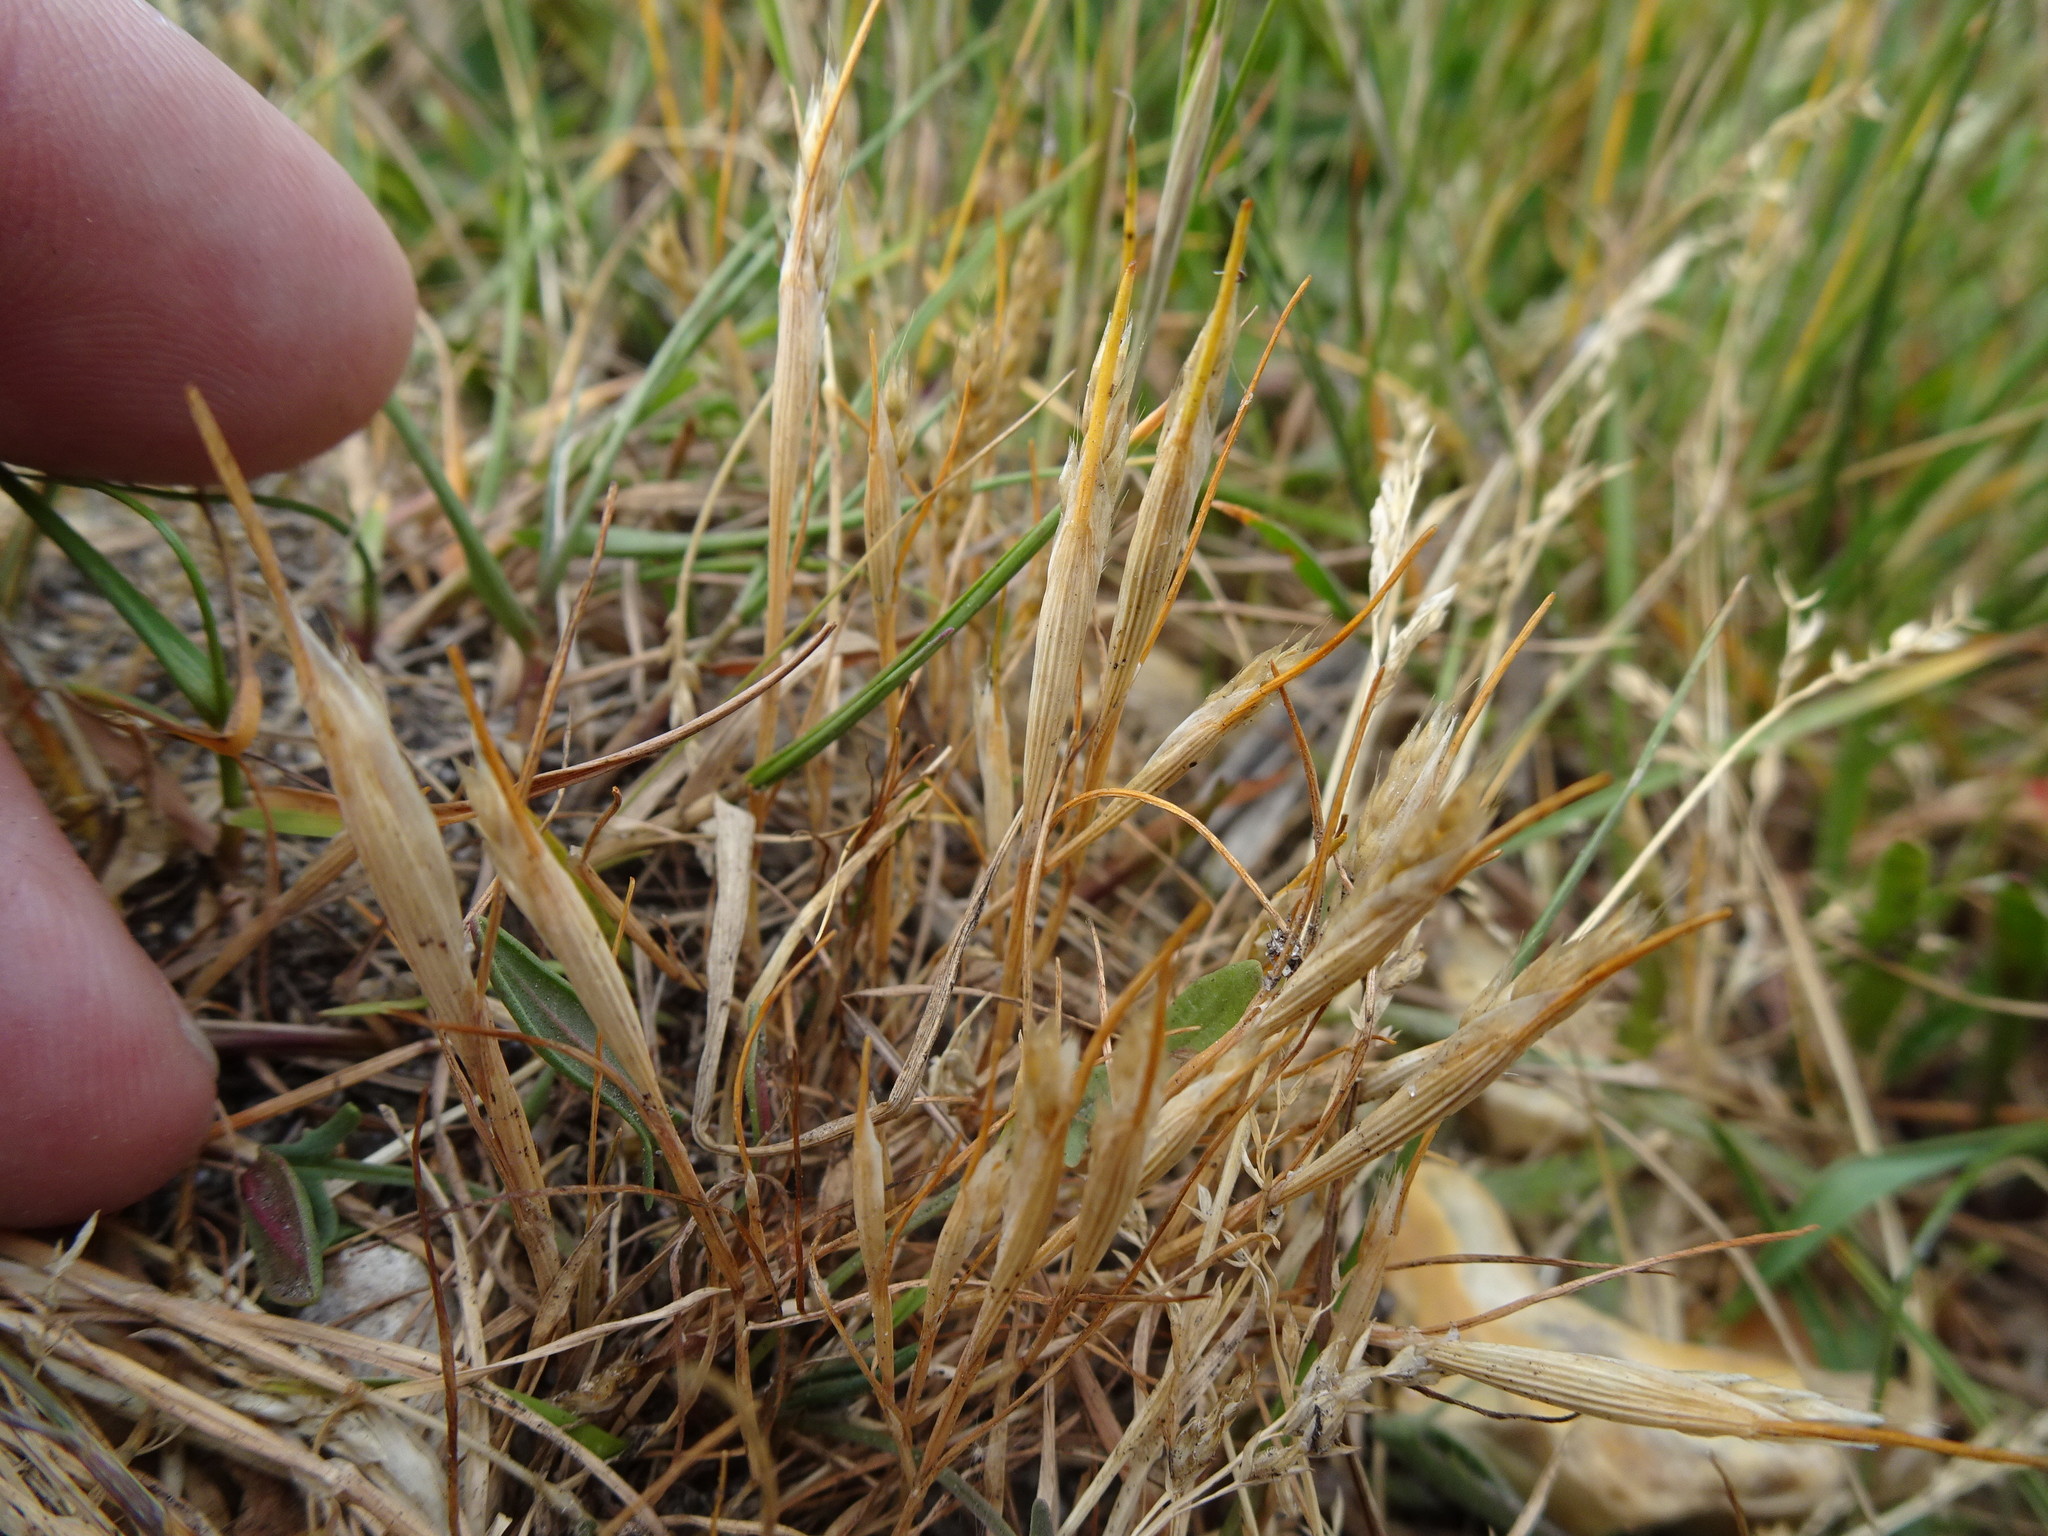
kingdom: Plantae
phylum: Tracheophyta
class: Liliopsida
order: Poales
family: Poaceae
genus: Aira
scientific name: Aira praecox
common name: Early hair-grass
